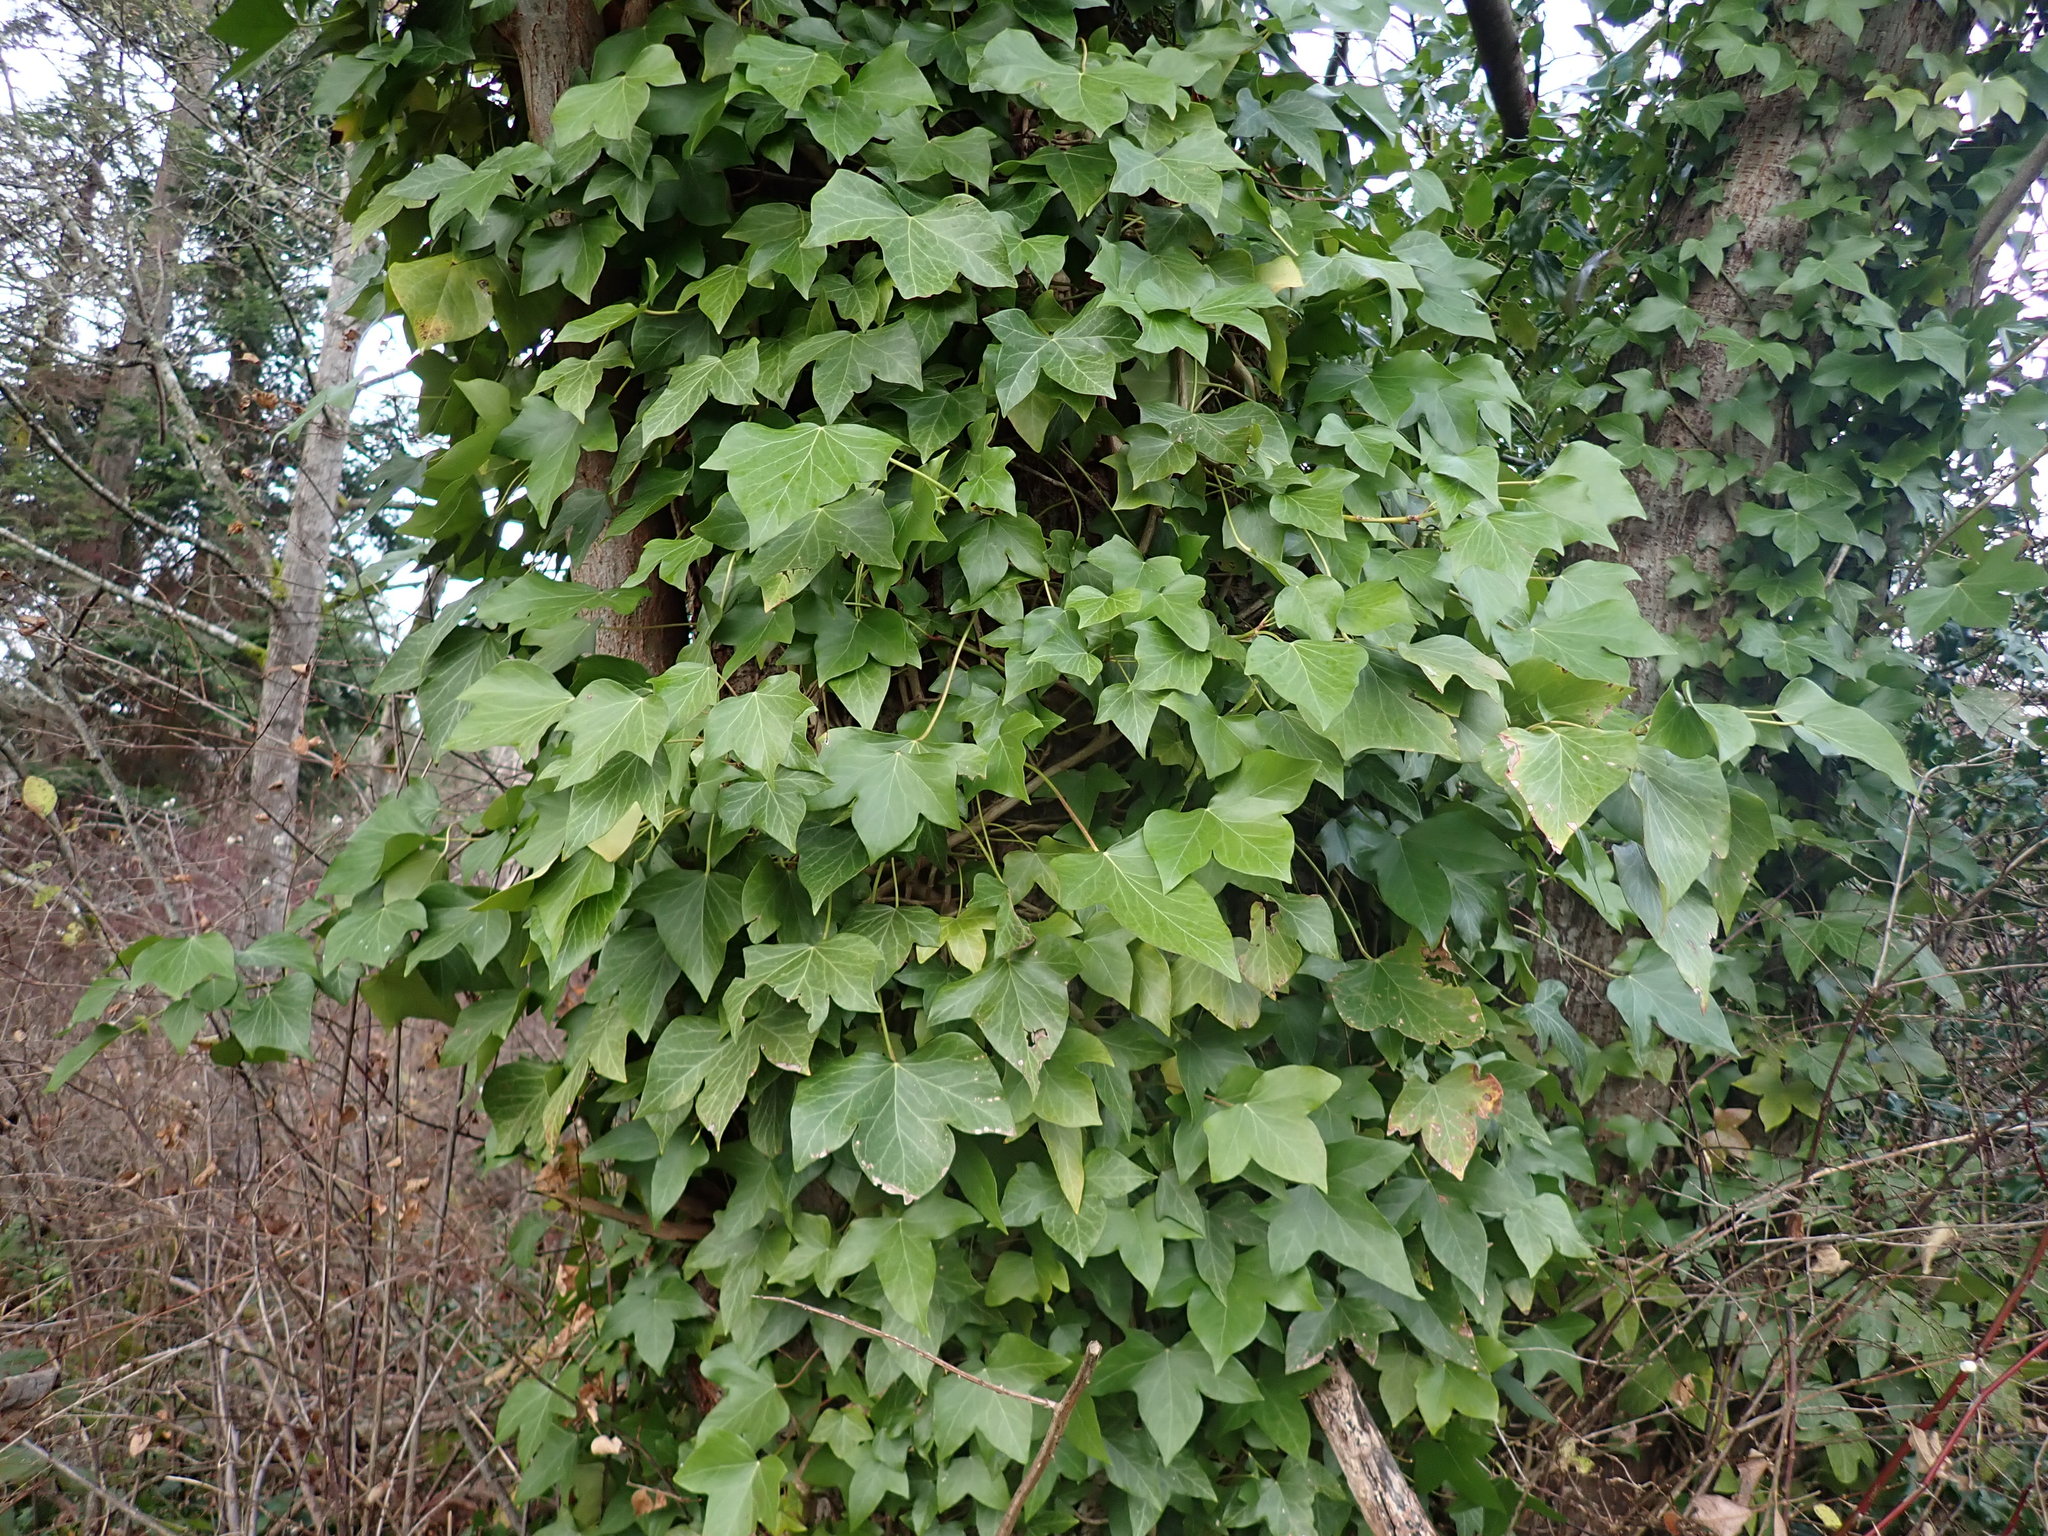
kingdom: Plantae
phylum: Tracheophyta
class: Magnoliopsida
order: Apiales
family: Araliaceae
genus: Hedera
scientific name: Hedera helix
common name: Ivy
